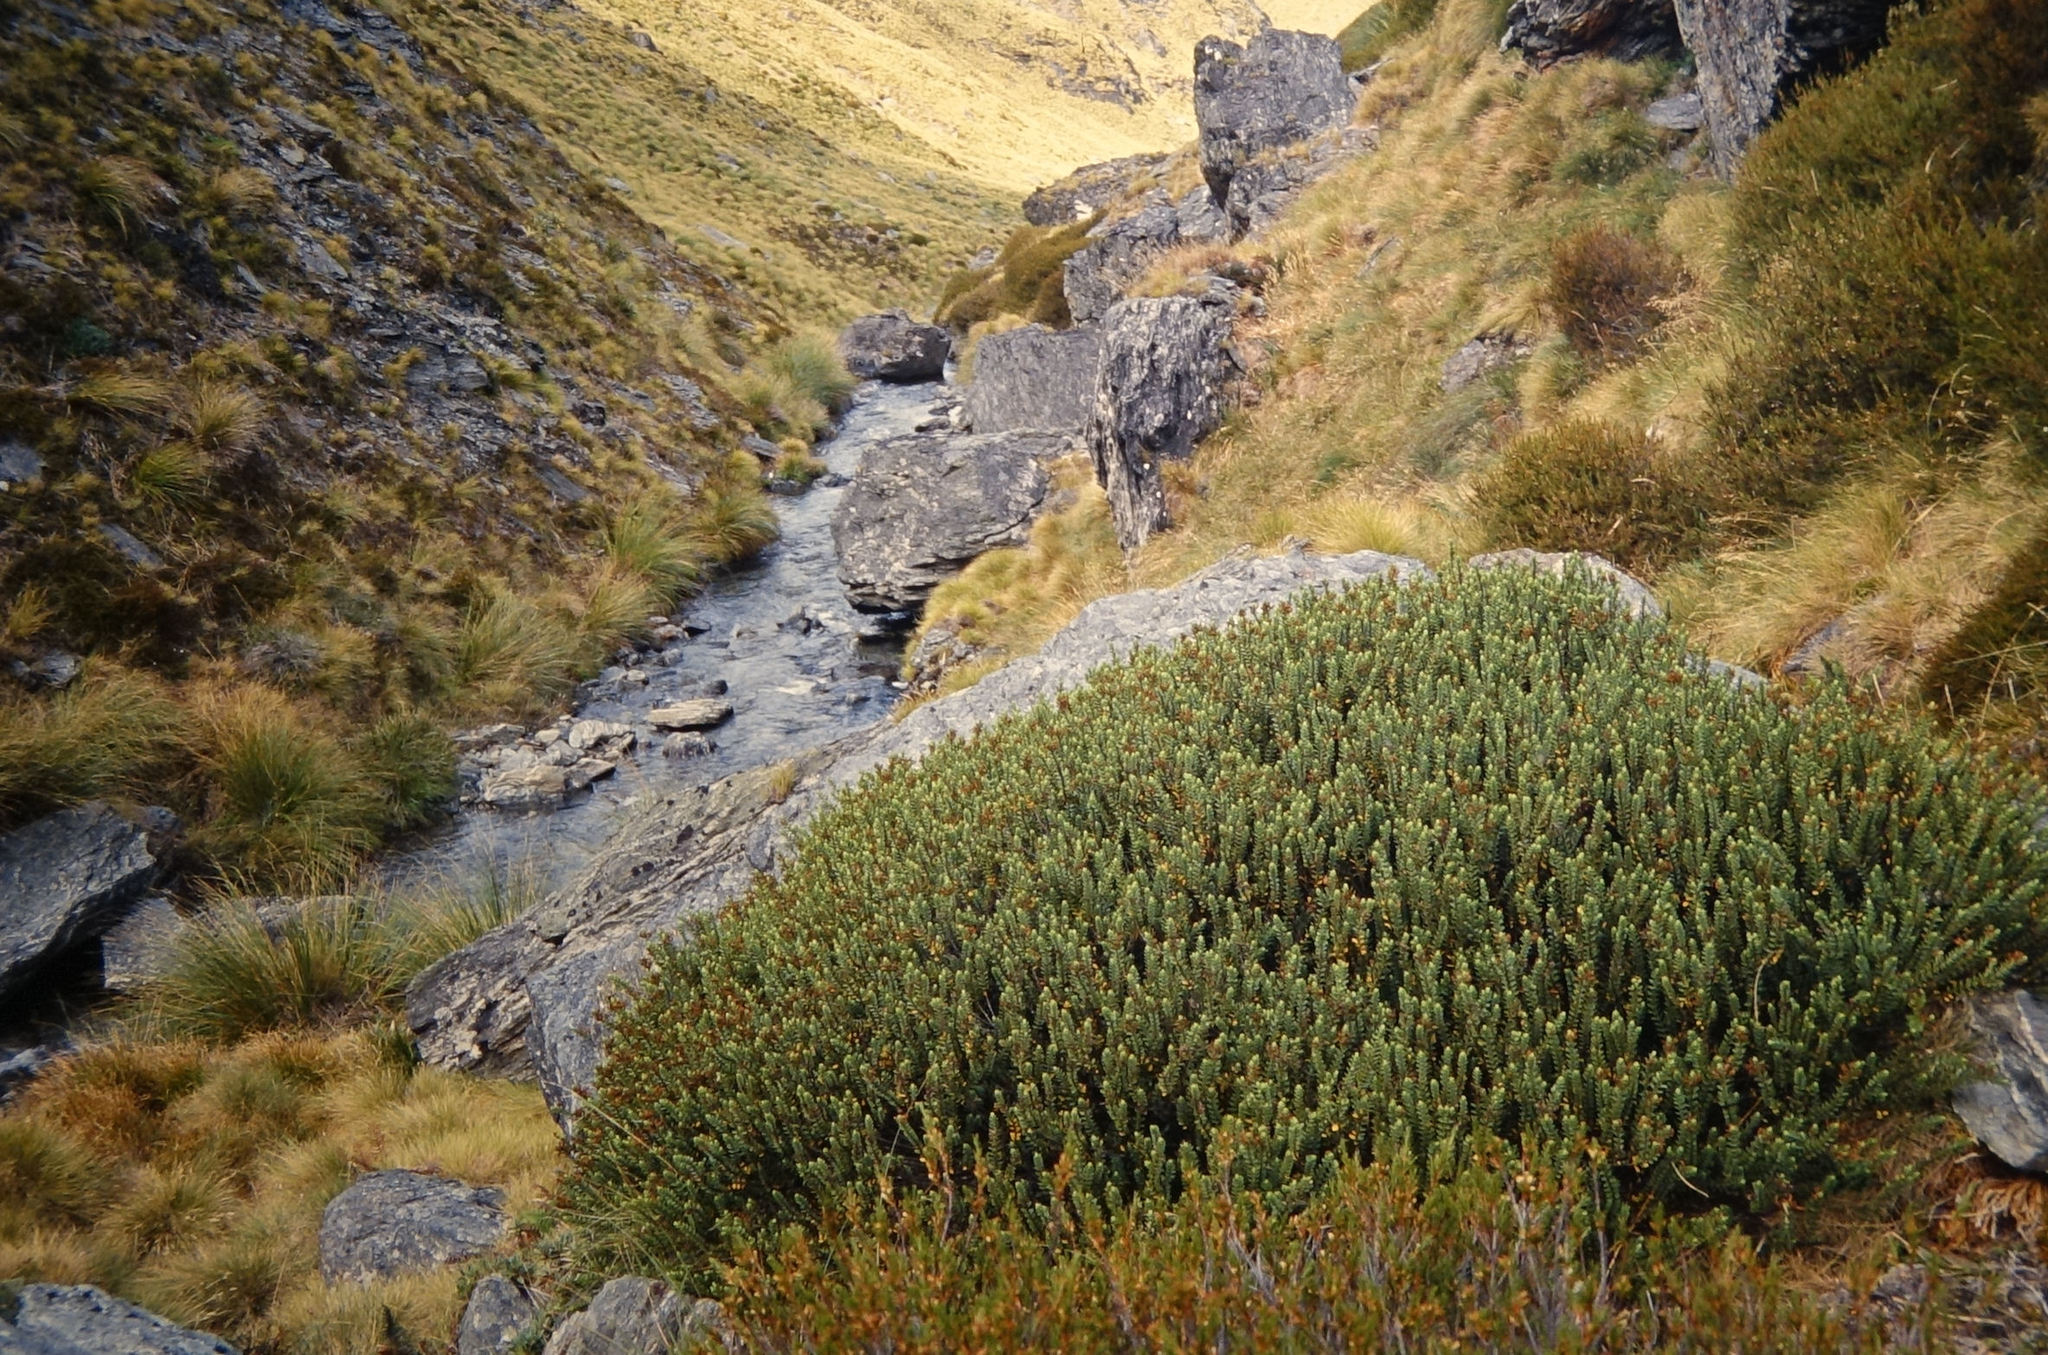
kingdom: Plantae
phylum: Tracheophyta
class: Magnoliopsida
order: Lamiales
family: Plantaginaceae
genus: Veronica
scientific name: Veronica dilatata
